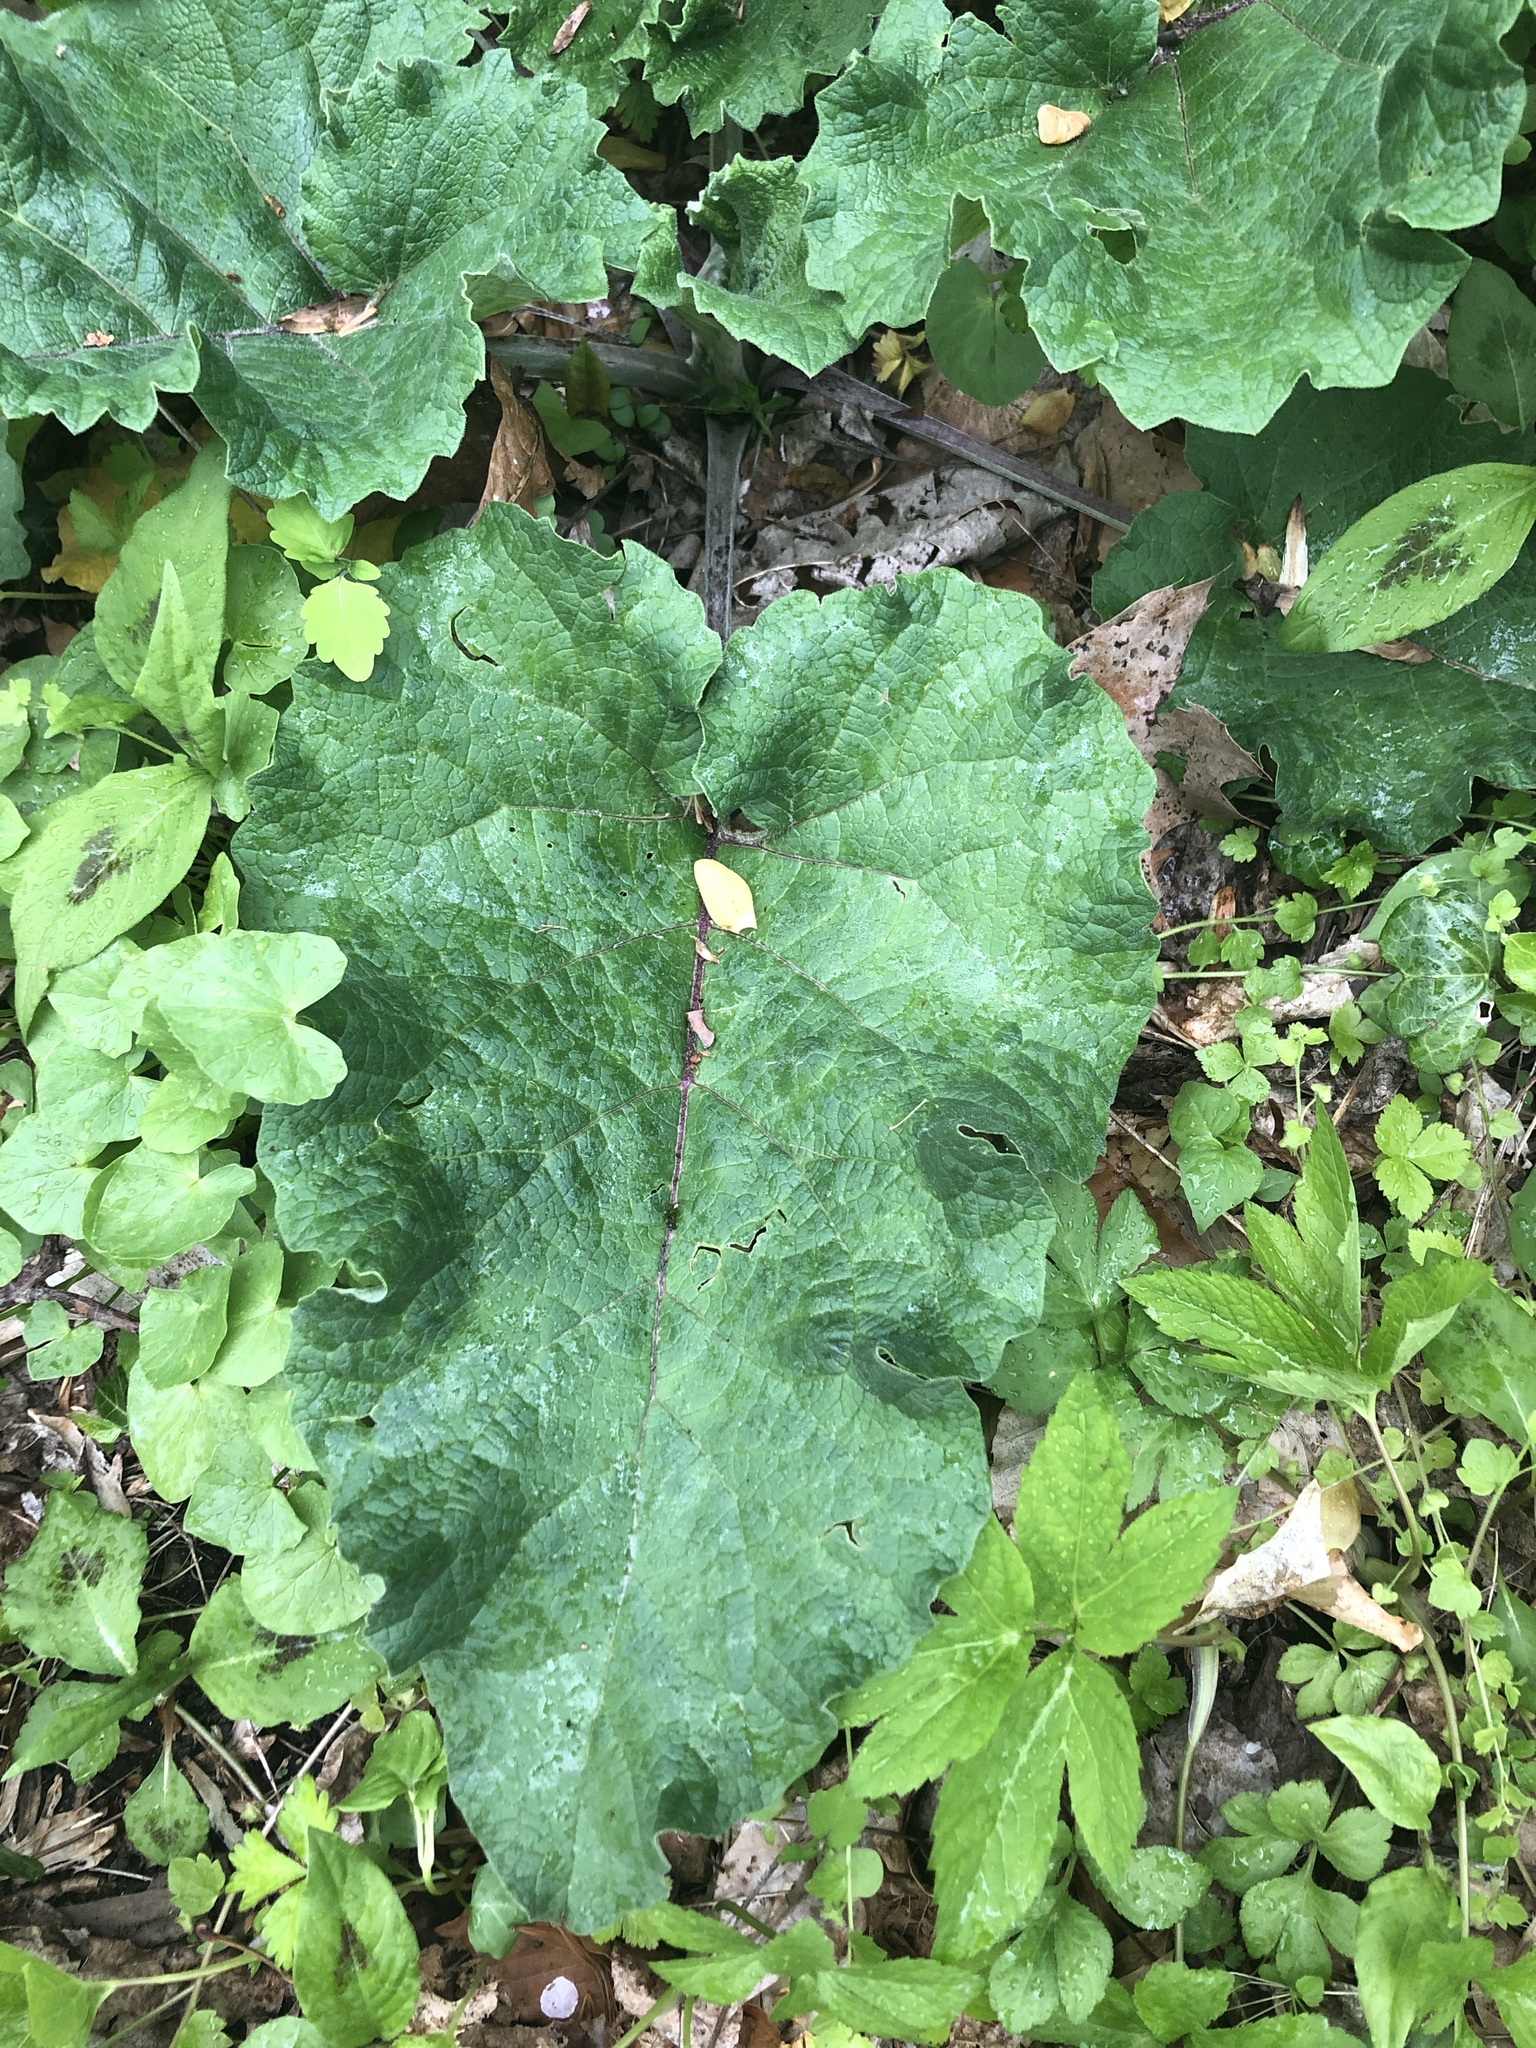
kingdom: Plantae
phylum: Tracheophyta
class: Magnoliopsida
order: Asterales
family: Asteraceae
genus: Arctium
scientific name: Arctium lappa
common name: Greater burdock
